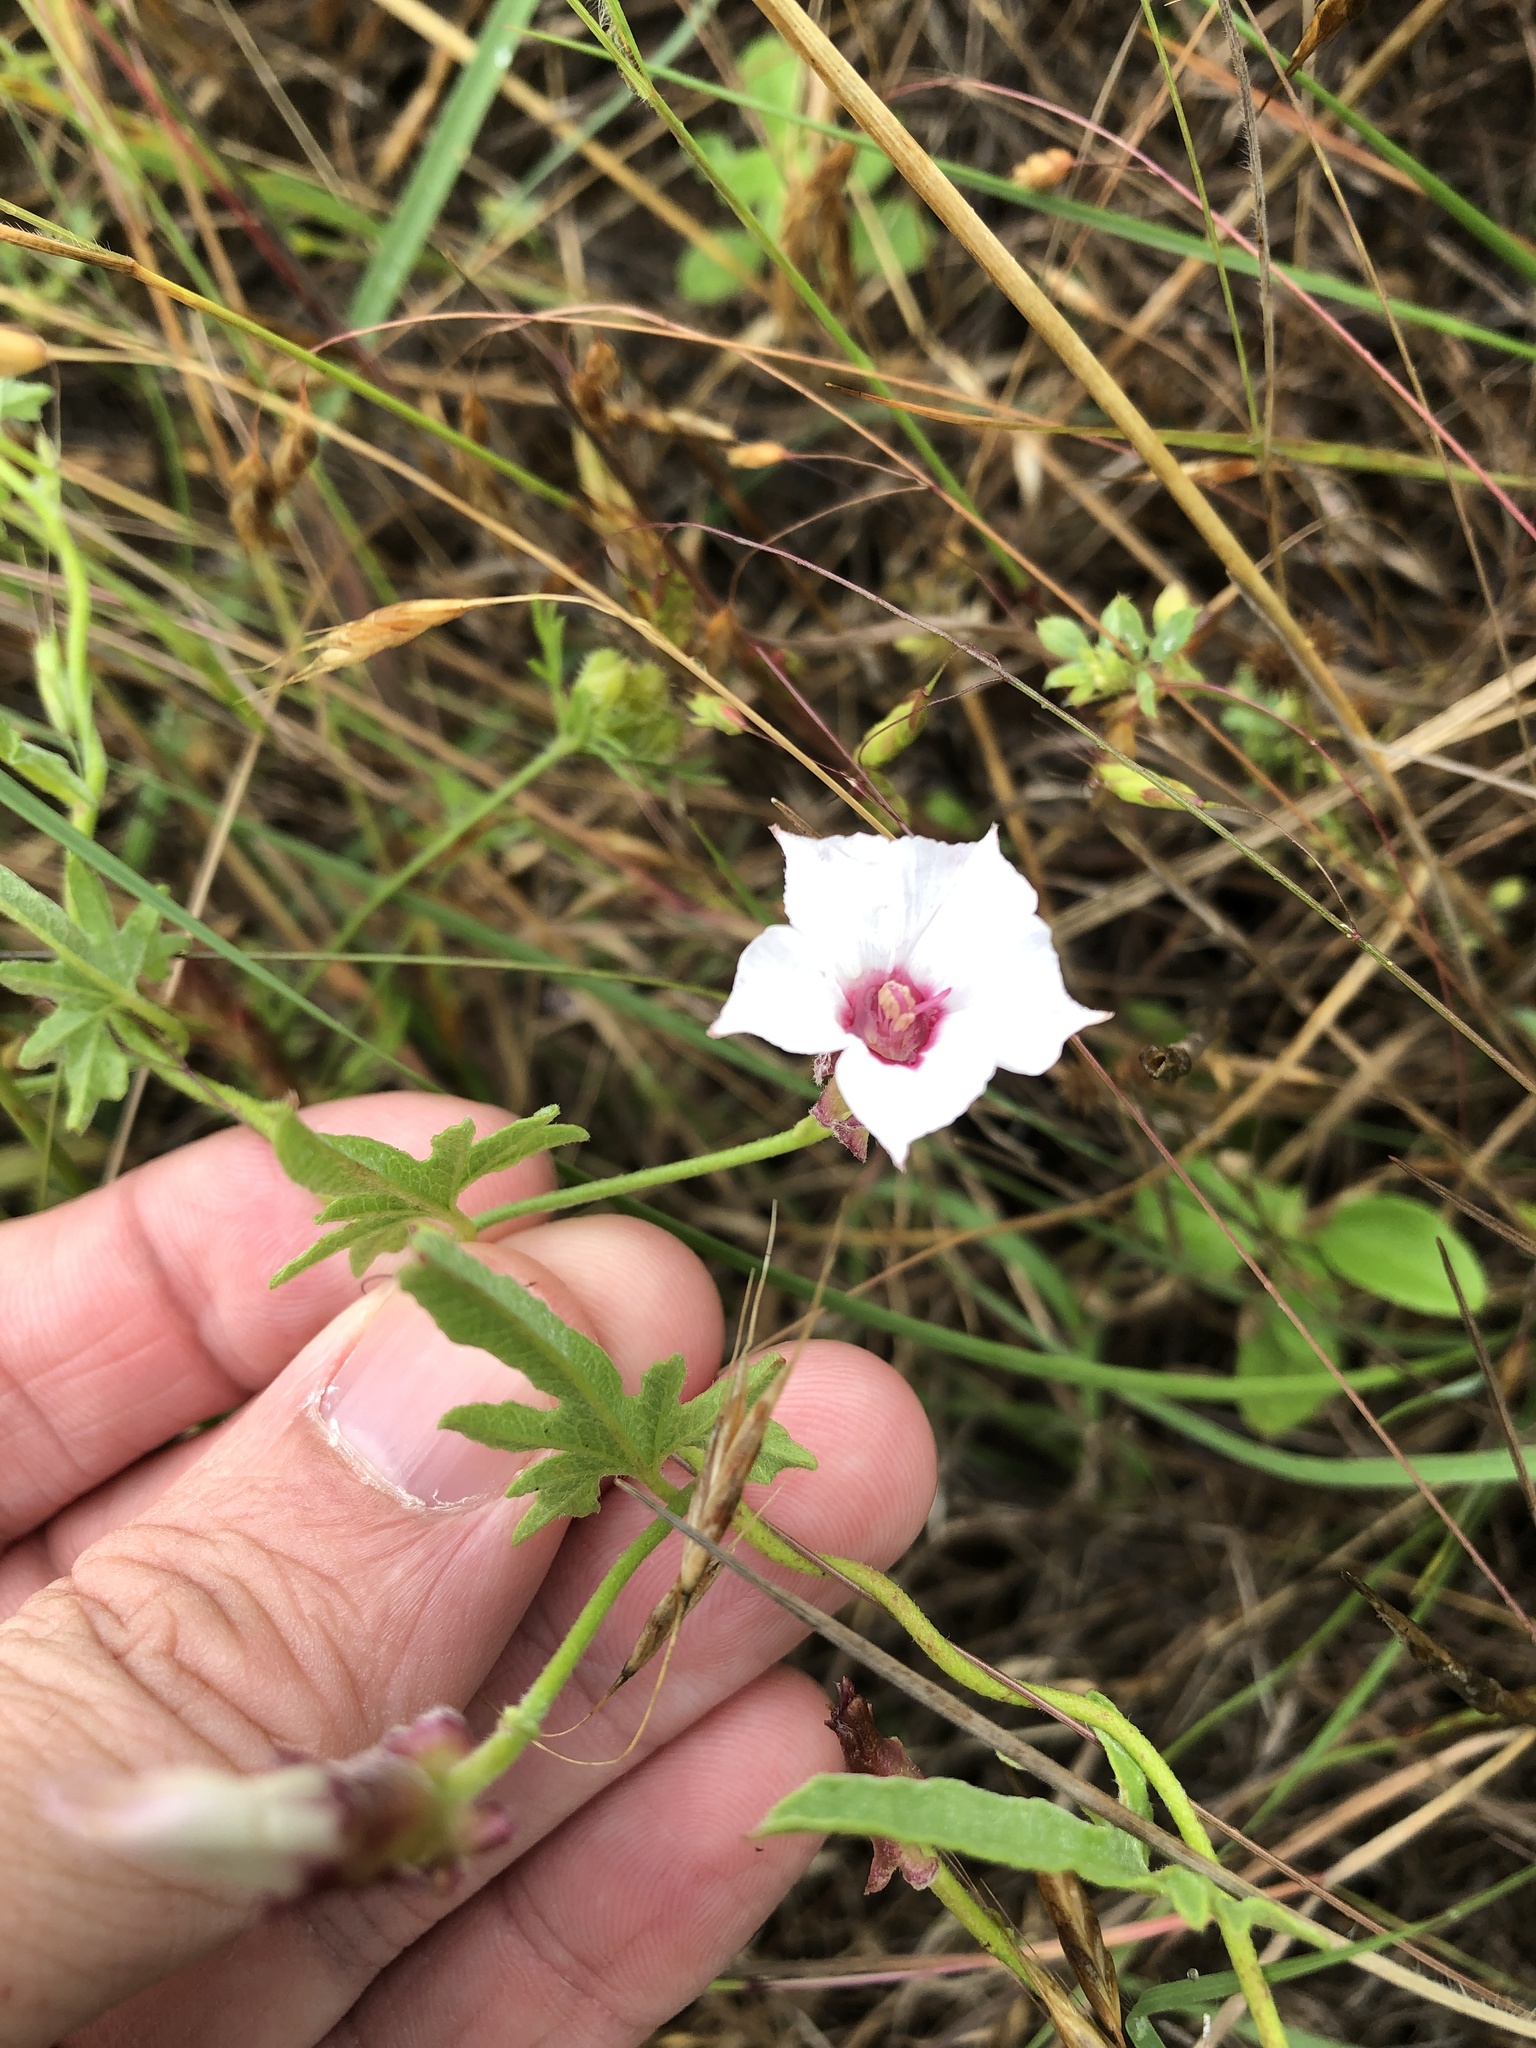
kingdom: Plantae
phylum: Tracheophyta
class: Magnoliopsida
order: Solanales
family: Convolvulaceae
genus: Convolvulus
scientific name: Convolvulus equitans
